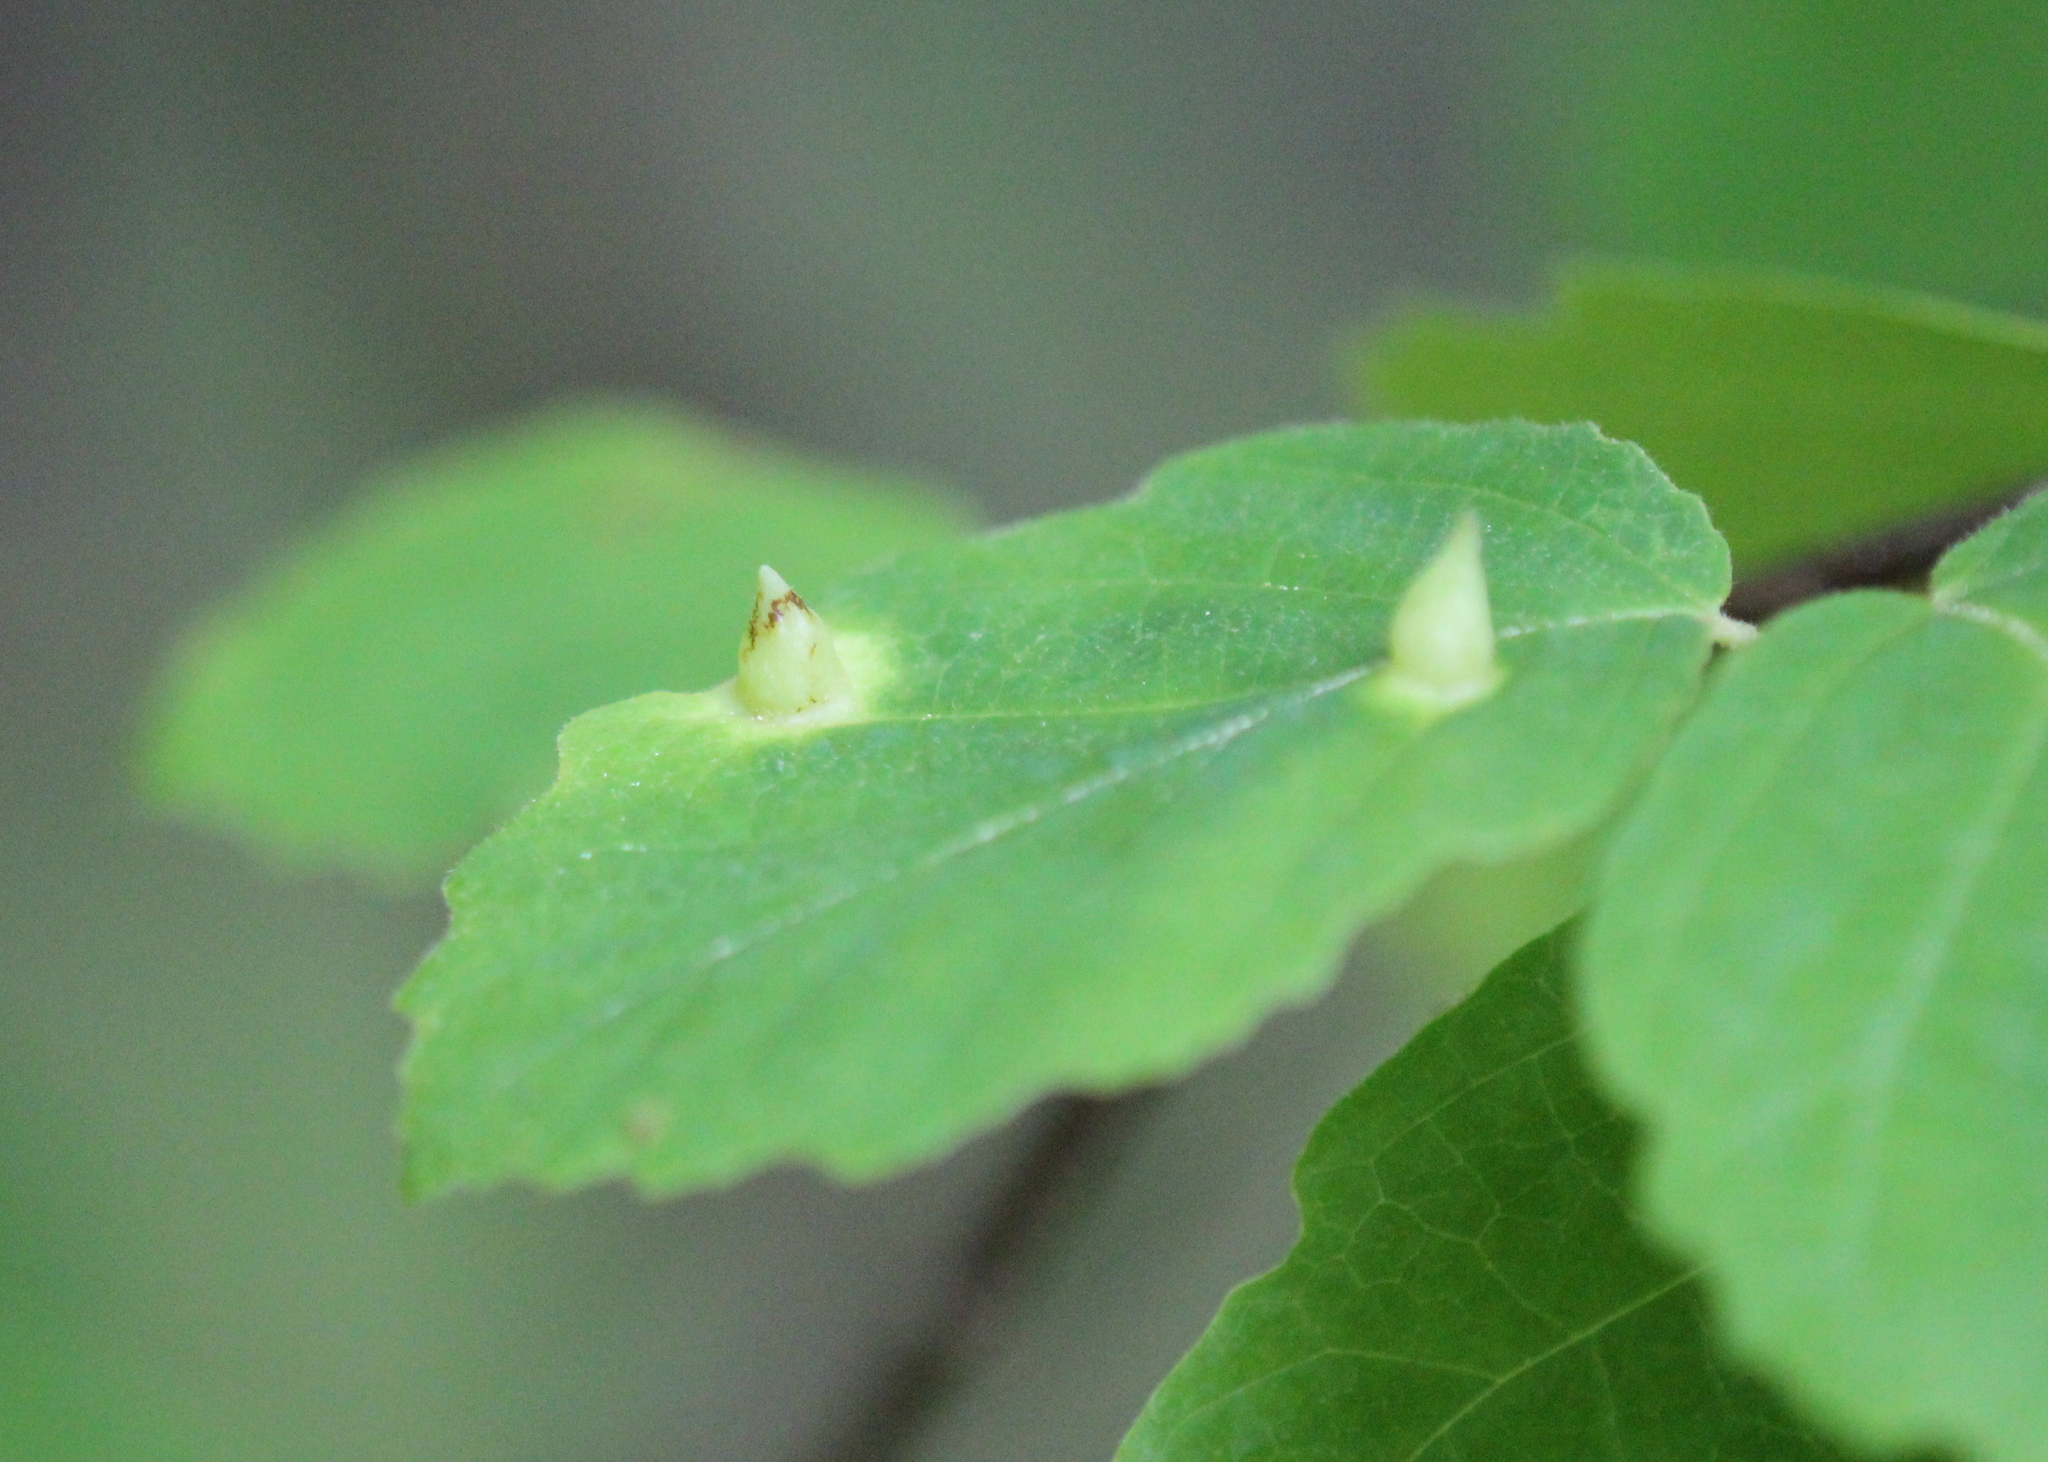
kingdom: Animalia
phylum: Arthropoda
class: Insecta
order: Hemiptera
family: Aphididae
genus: Hormaphis
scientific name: Hormaphis hamamelidis
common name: Witch-hazel cone gall aphid
